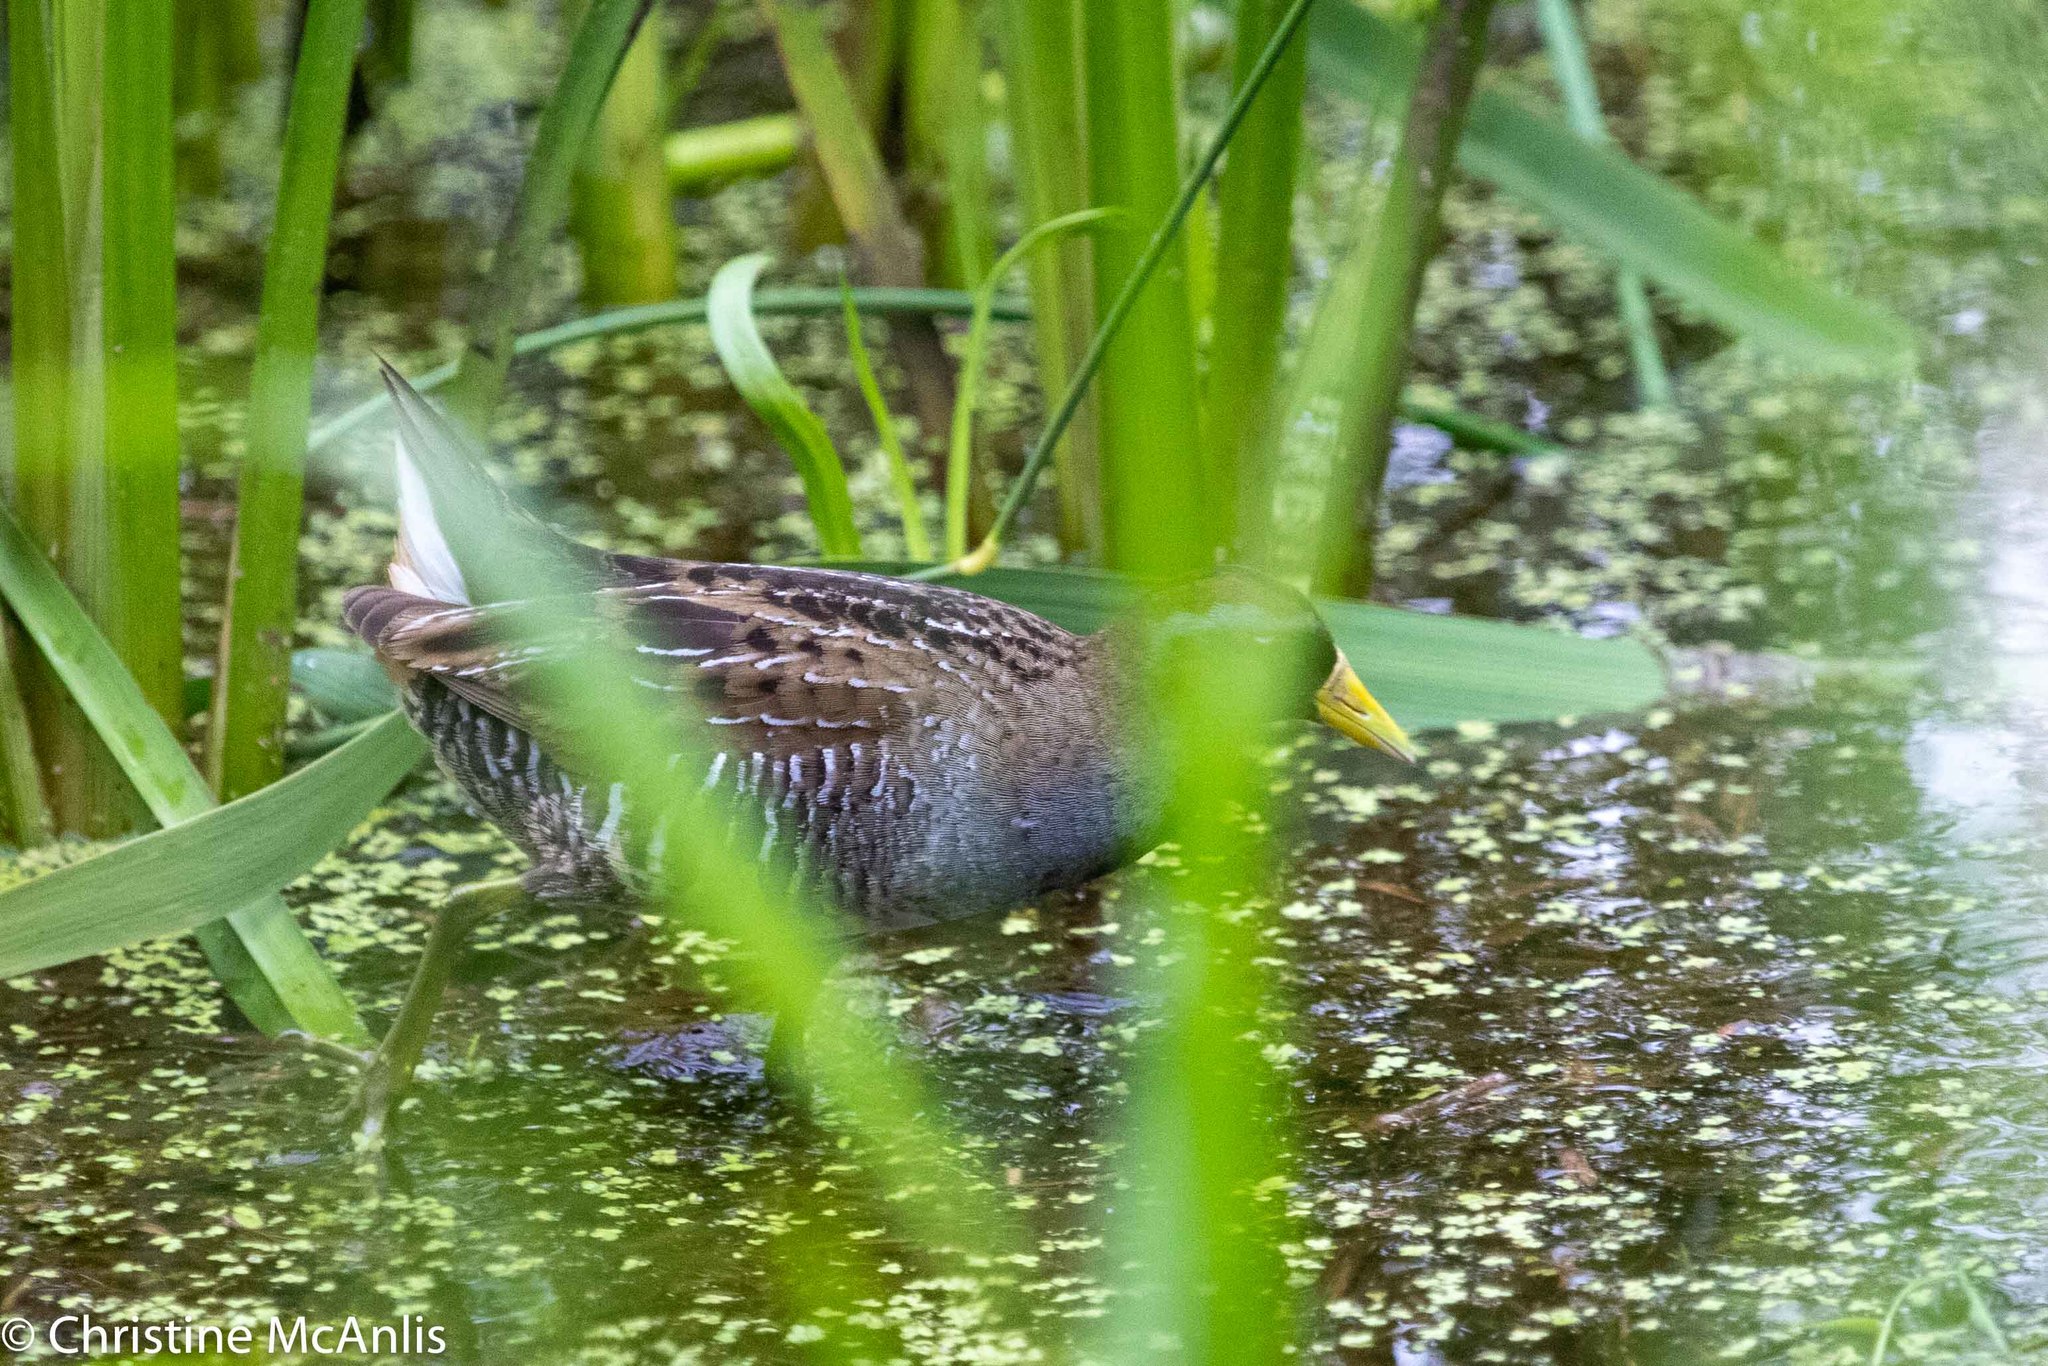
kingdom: Animalia
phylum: Chordata
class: Aves
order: Gruiformes
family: Rallidae
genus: Porzana
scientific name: Porzana carolina
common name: Sora
